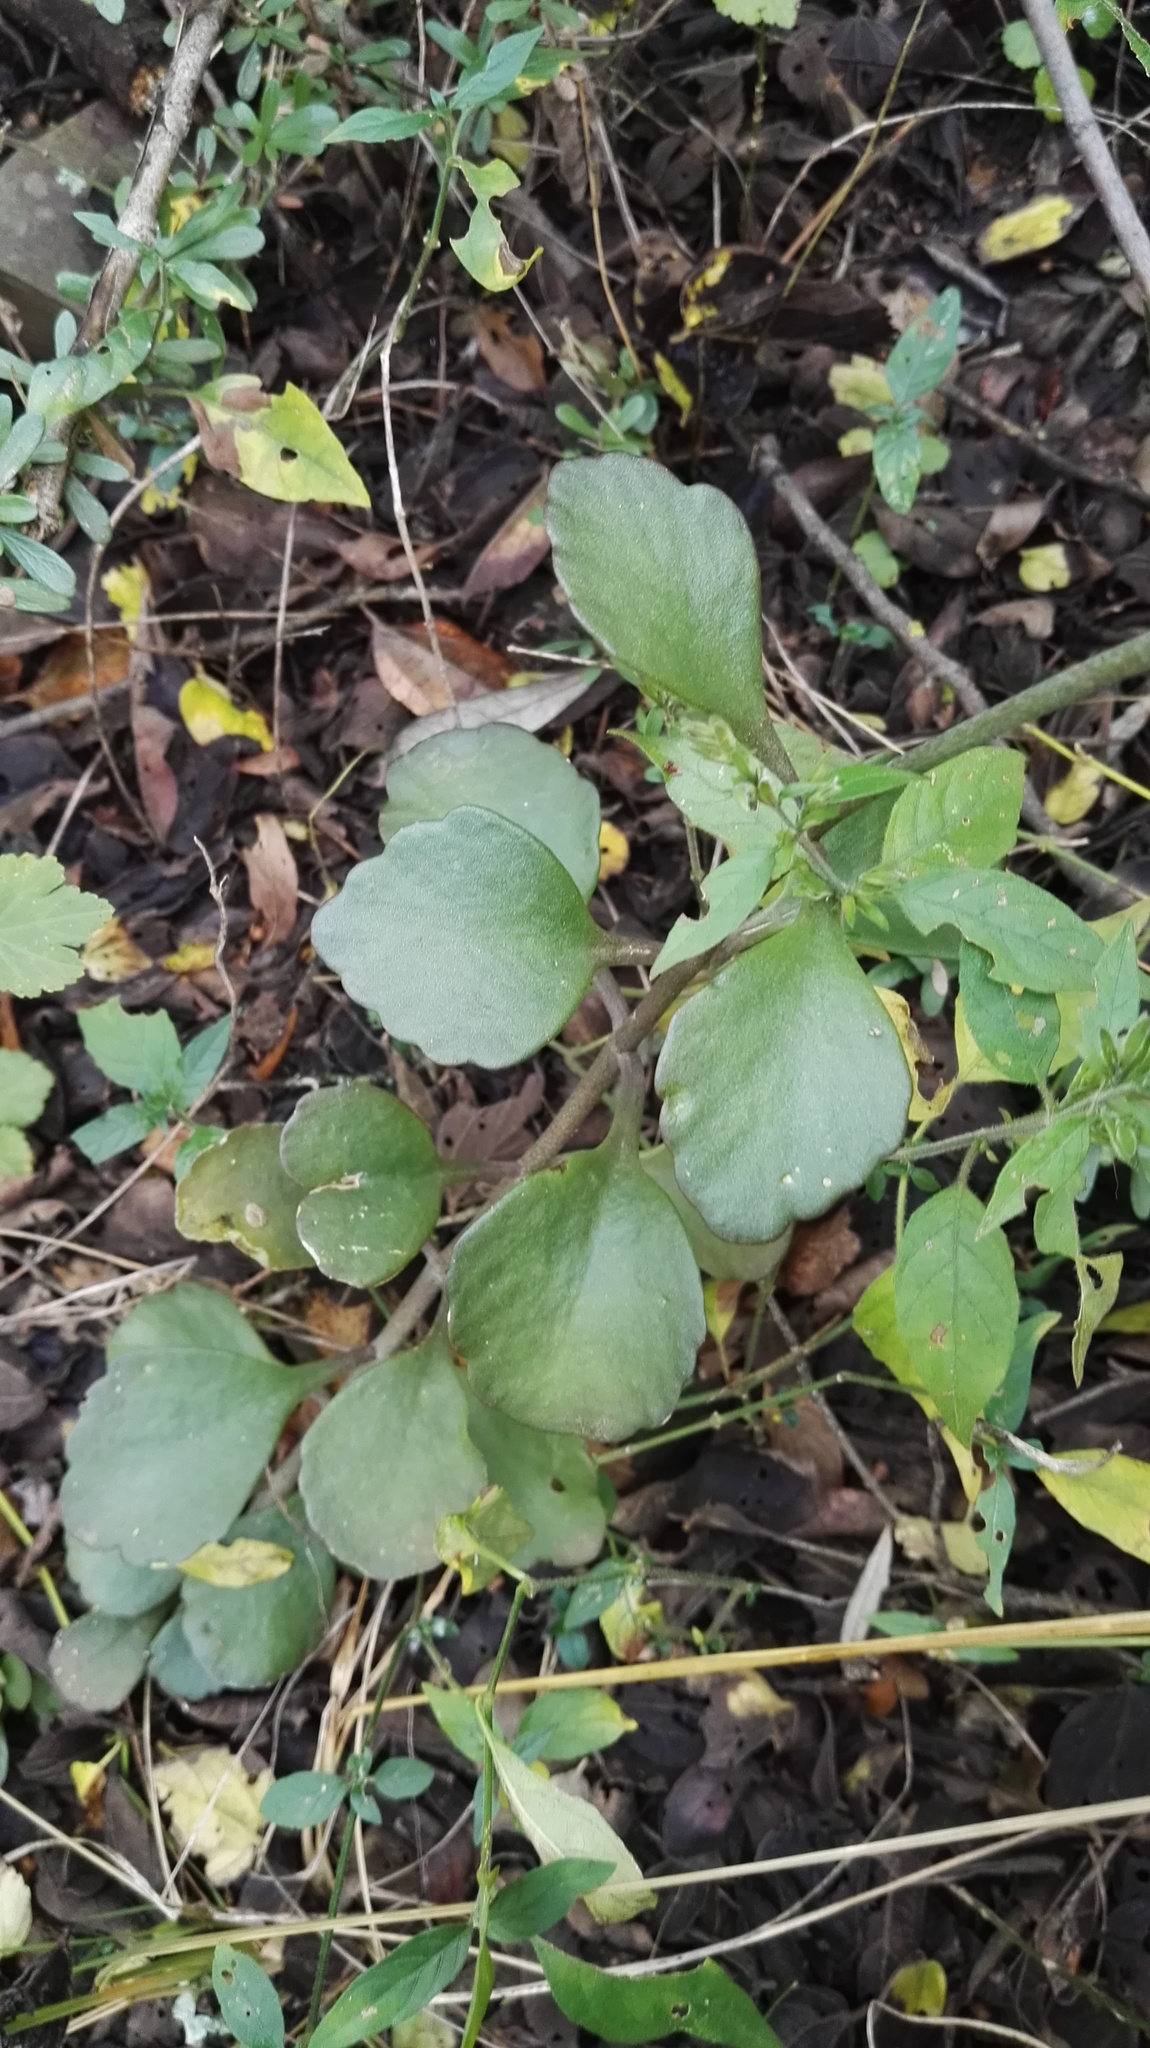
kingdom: Plantae
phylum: Tracheophyta
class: Magnoliopsida
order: Saxifragales
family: Crassulaceae
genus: Kalanchoe
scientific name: Kalanchoe rotundifolia
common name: Common kalanchoe
